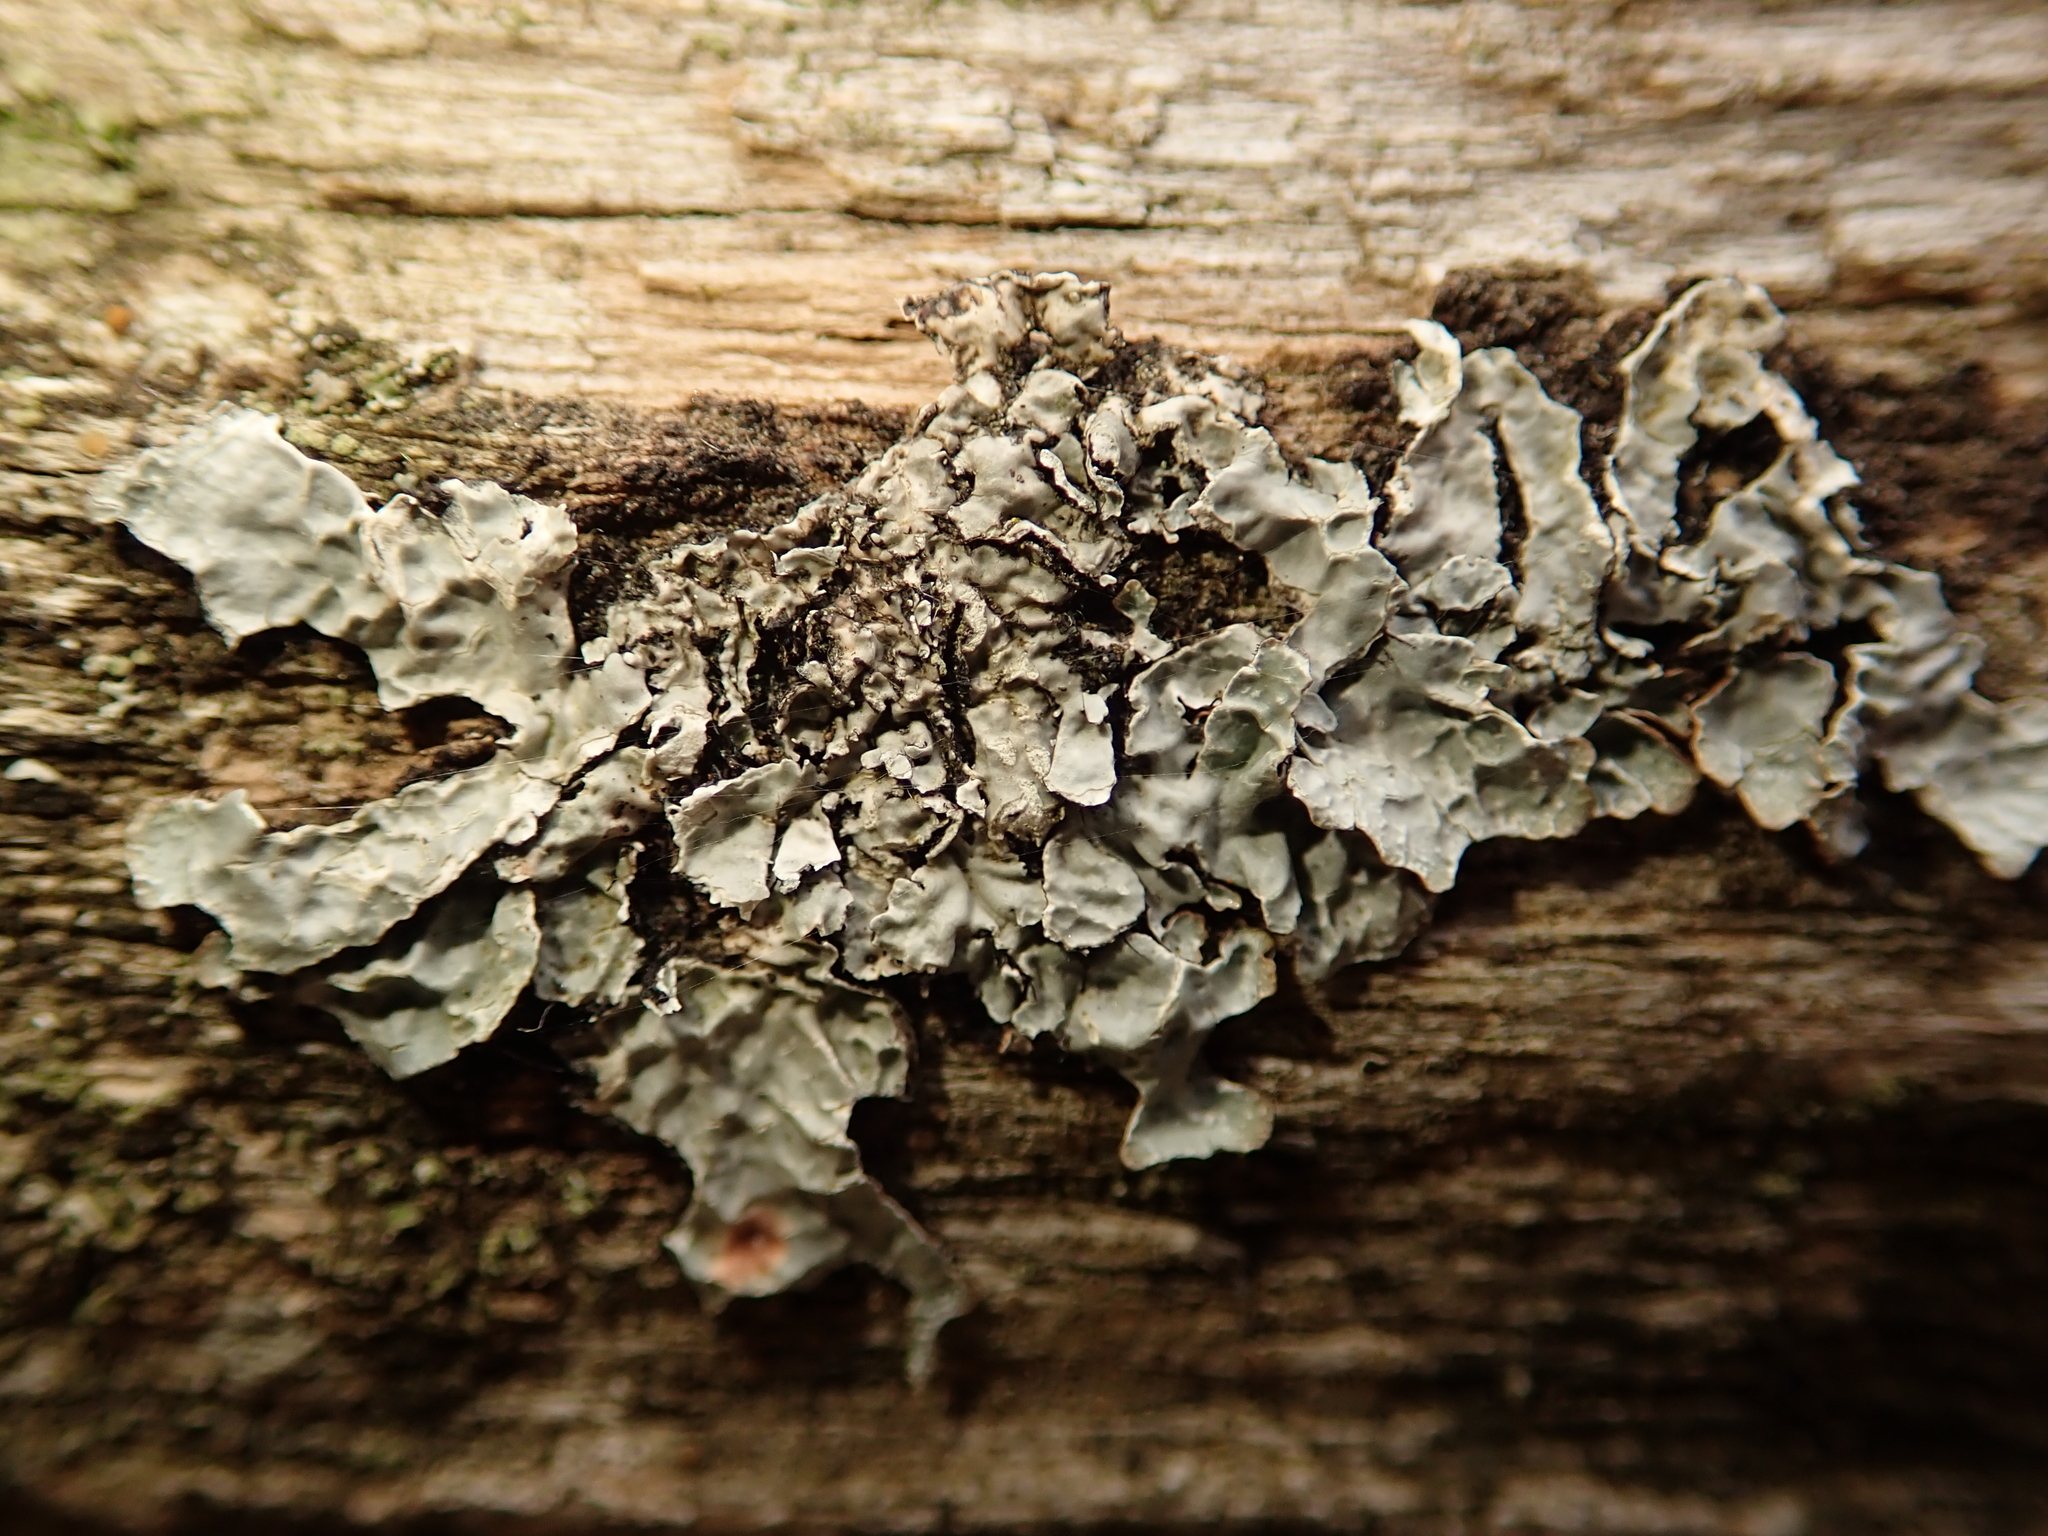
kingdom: Fungi
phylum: Ascomycota
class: Lecanoromycetes
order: Lecanorales
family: Parmeliaceae
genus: Parmelia
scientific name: Parmelia sulcata
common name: Netted shield lichen
